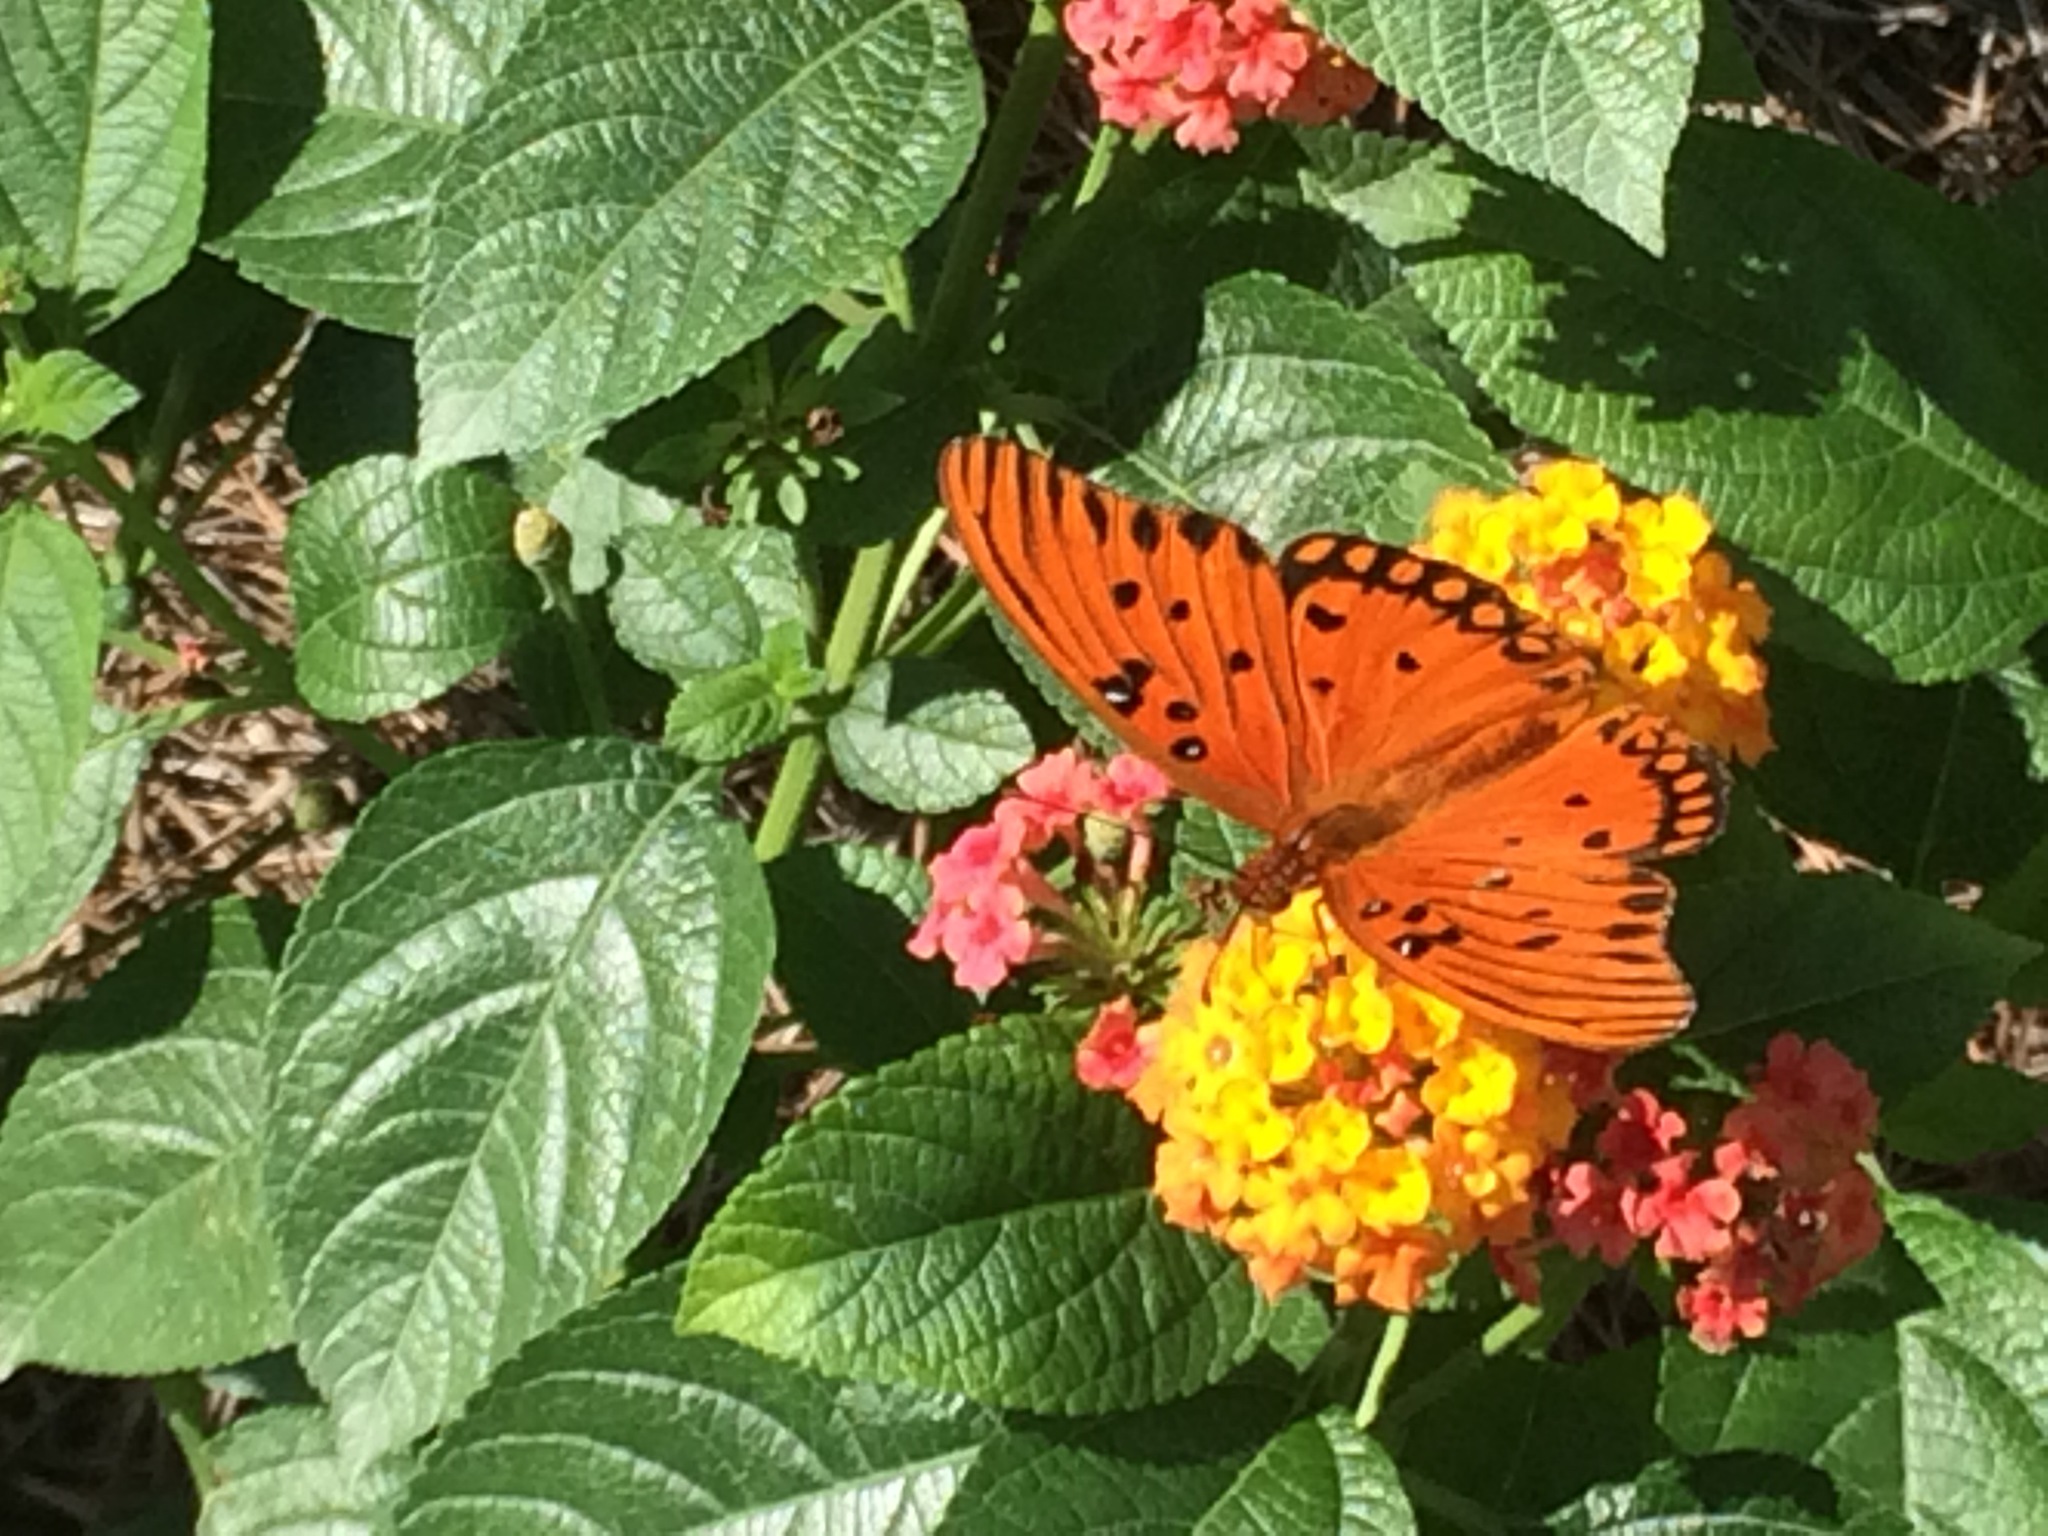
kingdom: Animalia
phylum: Arthropoda
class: Insecta
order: Lepidoptera
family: Nymphalidae
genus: Dione
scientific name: Dione vanillae
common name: Gulf fritillary
